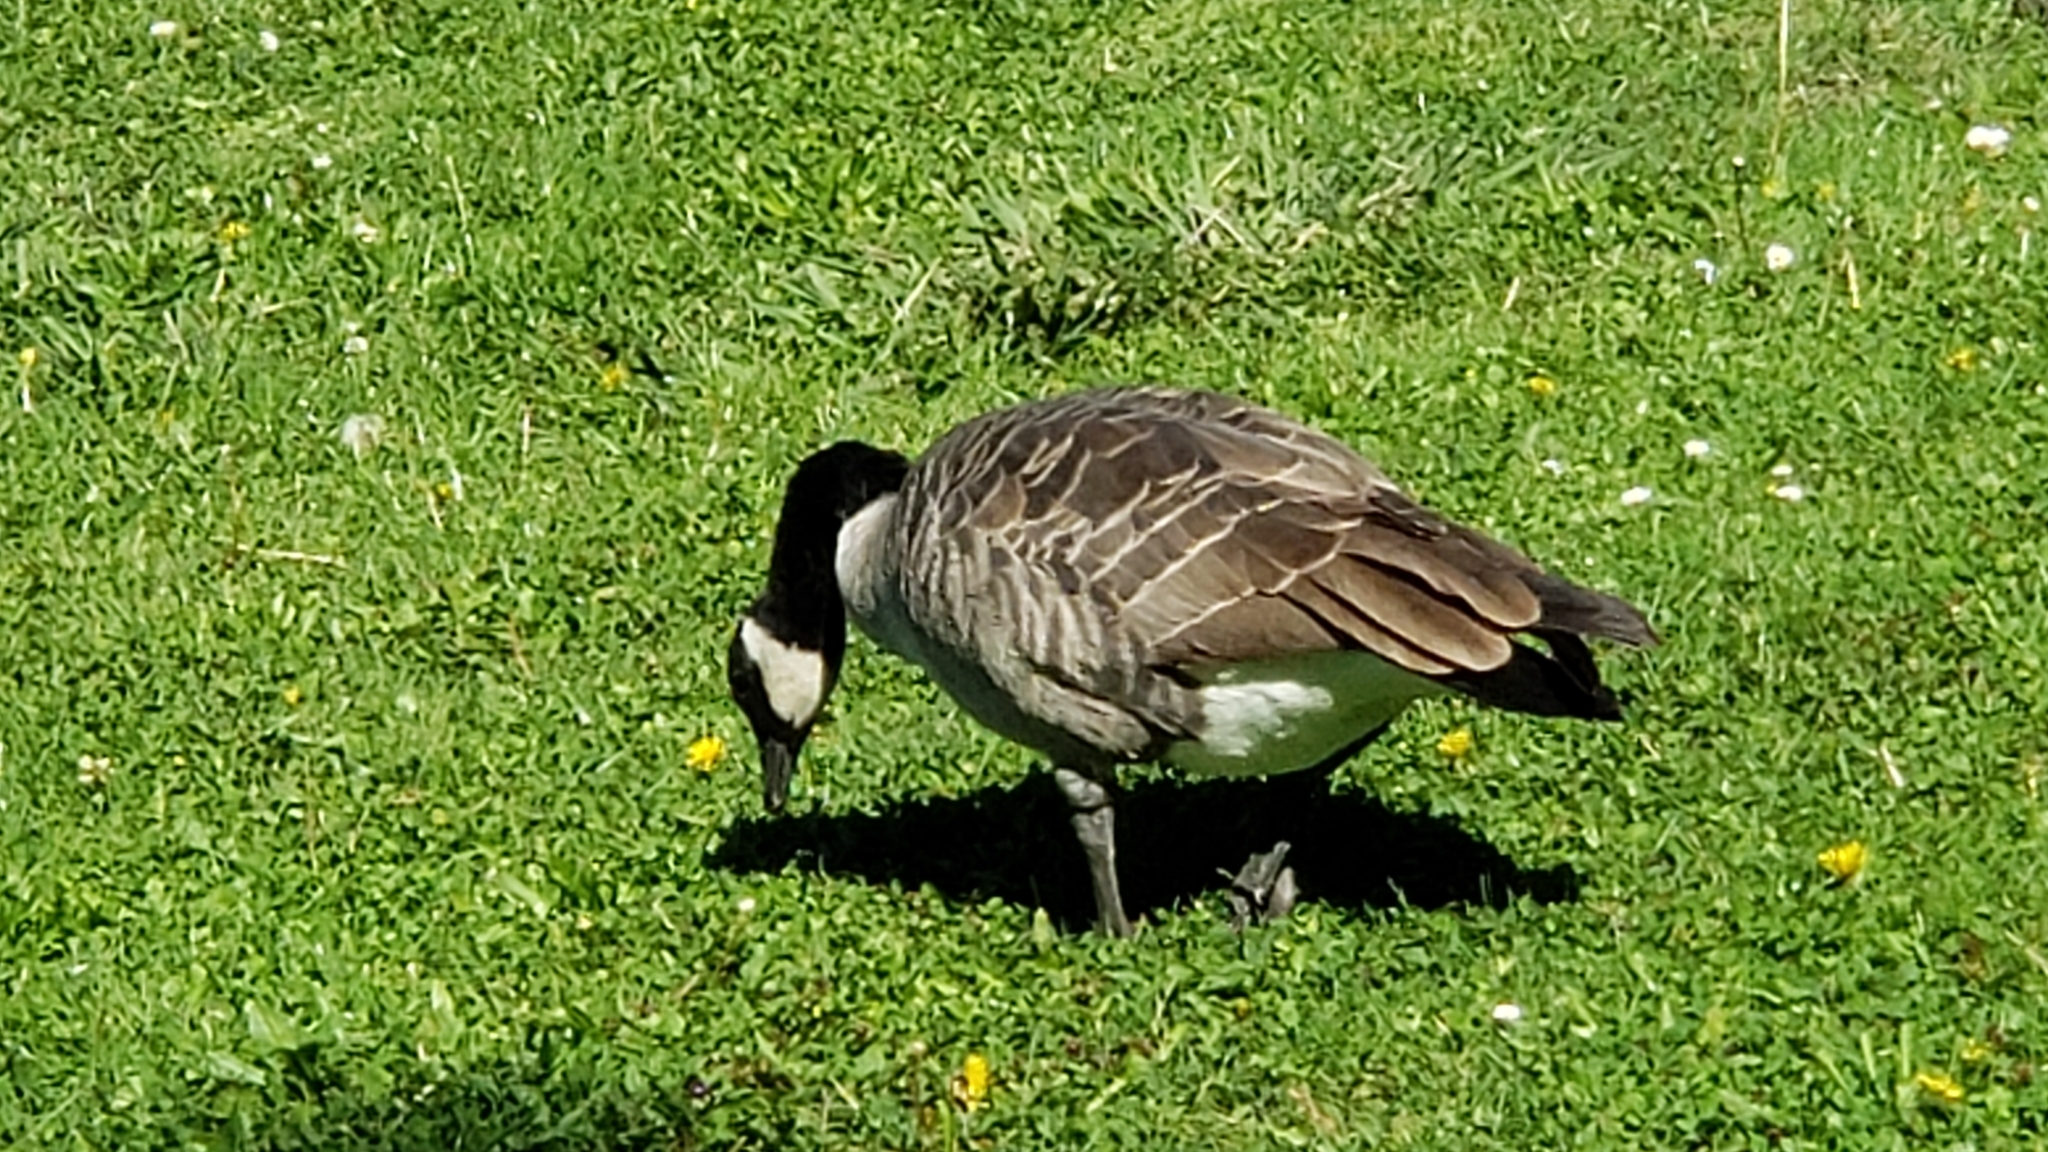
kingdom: Animalia
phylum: Chordata
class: Aves
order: Anseriformes
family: Anatidae
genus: Branta
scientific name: Branta canadensis
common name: Canada goose
